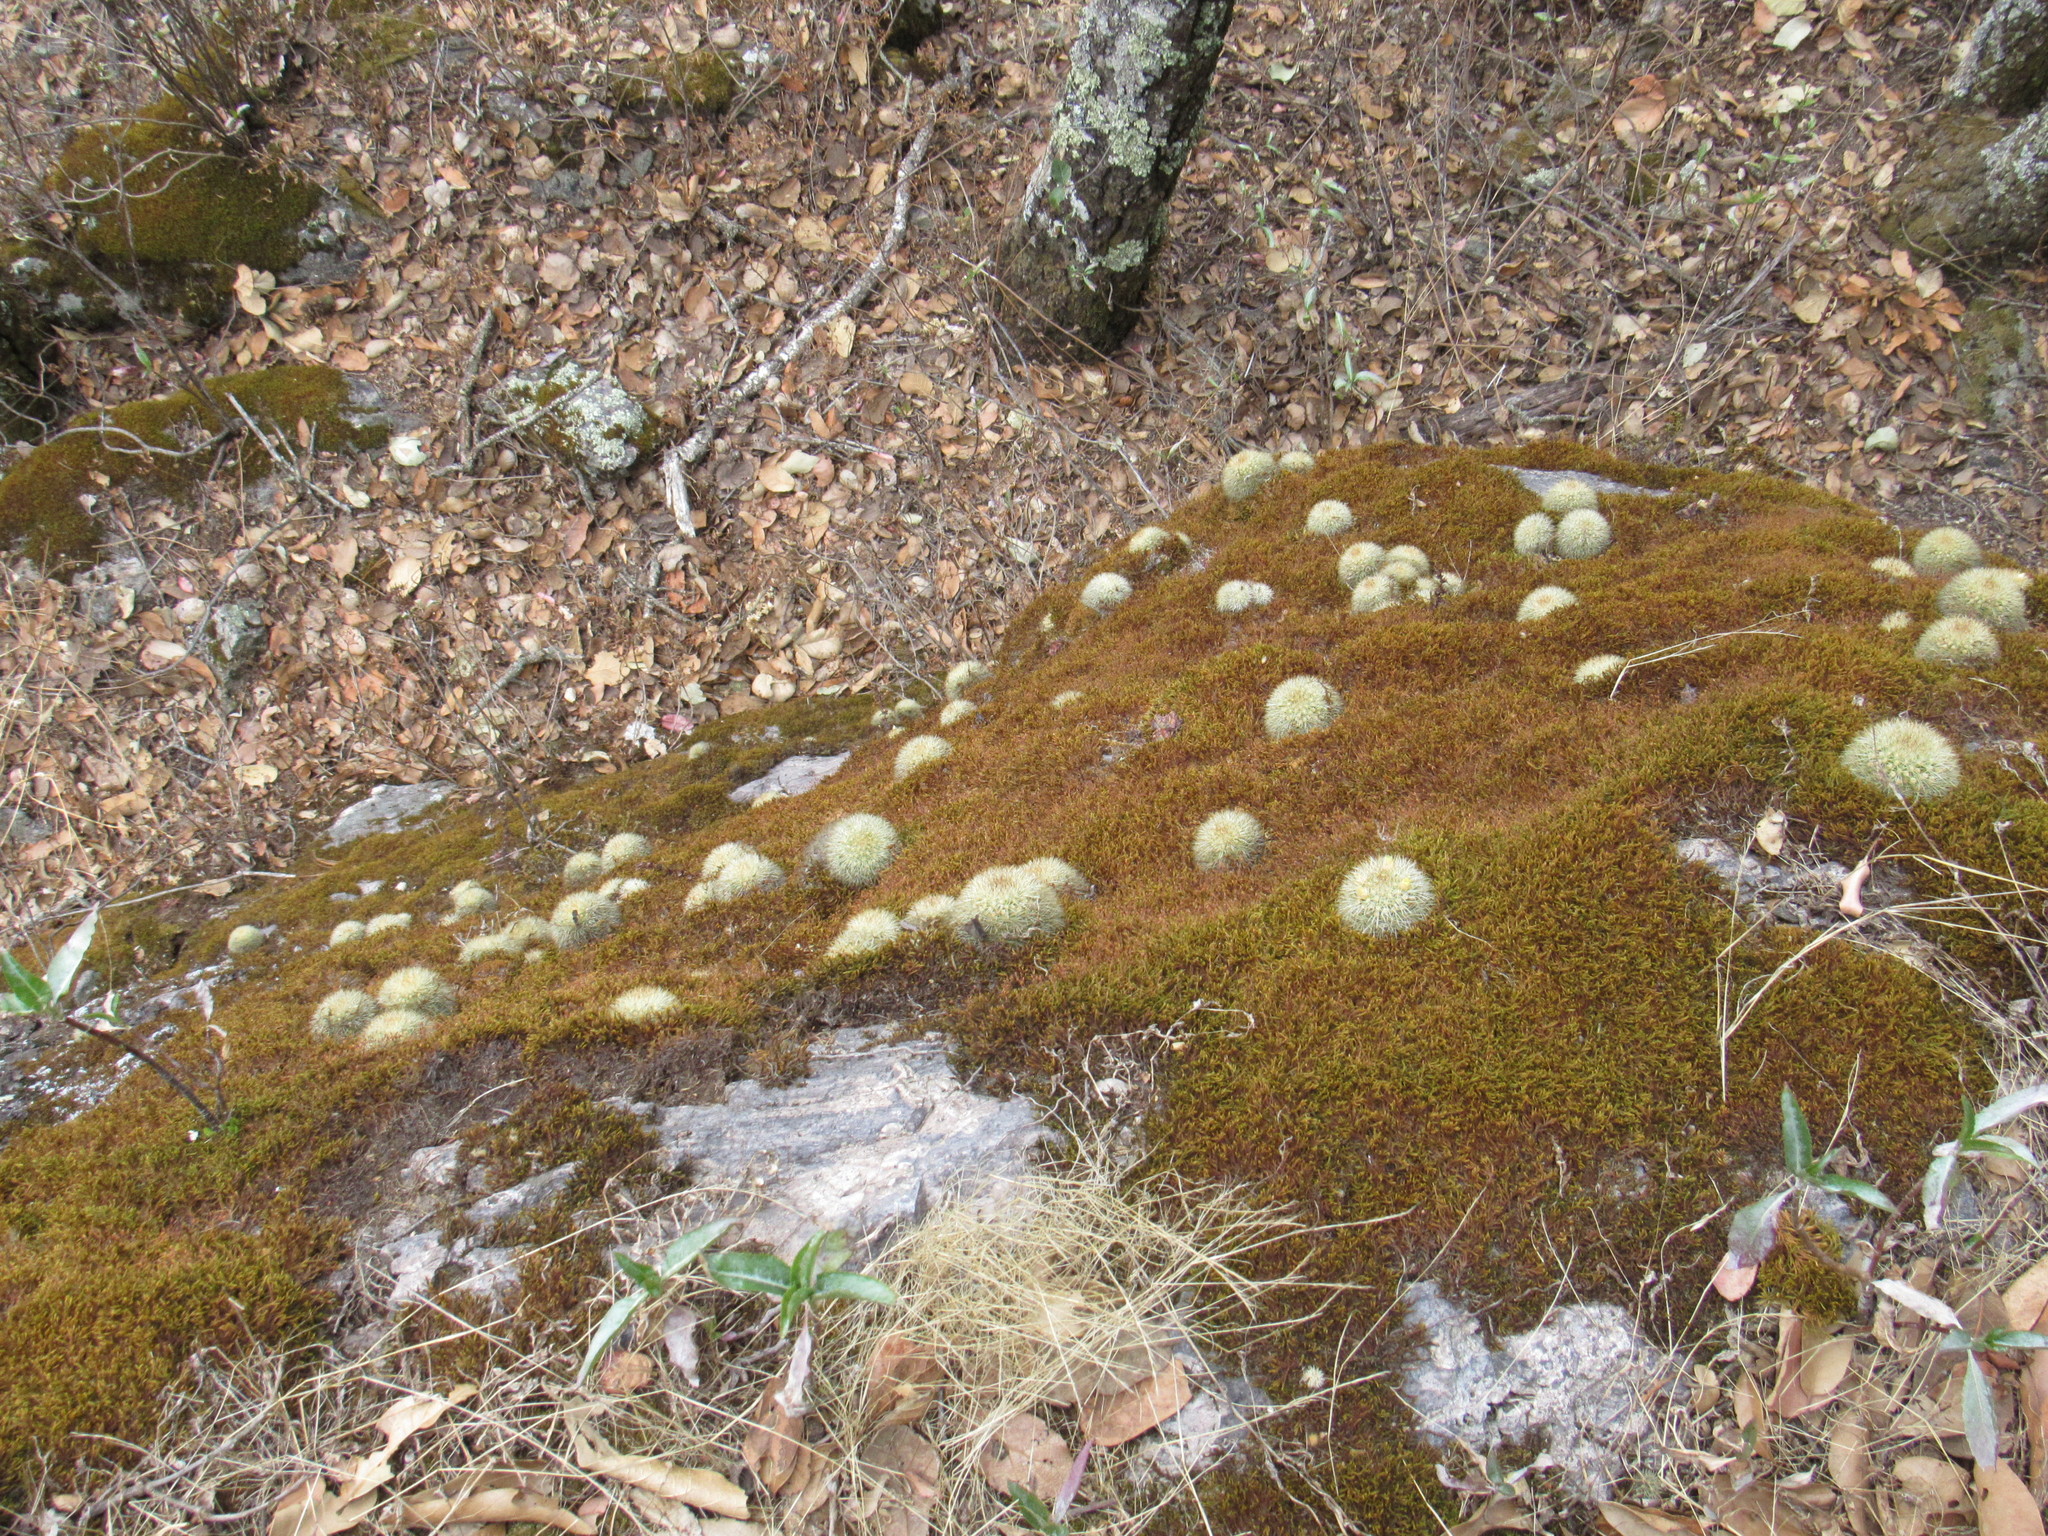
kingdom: Plantae
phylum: Tracheophyta
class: Magnoliopsida
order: Caryophyllales
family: Cactaceae
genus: Mammillaria
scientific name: Mammillaria densispina
